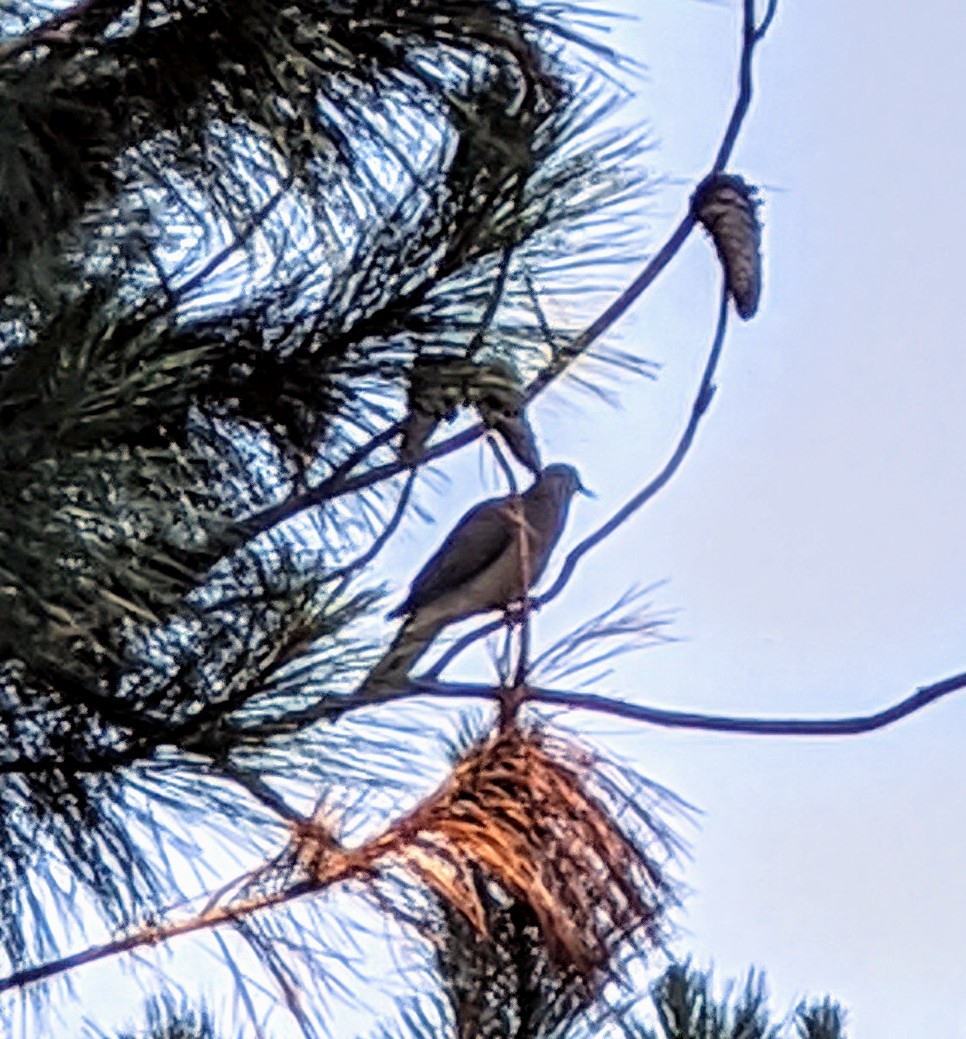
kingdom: Animalia
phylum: Chordata
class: Aves
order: Columbiformes
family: Columbidae
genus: Zenaida
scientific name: Zenaida macroura
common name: Mourning dove
